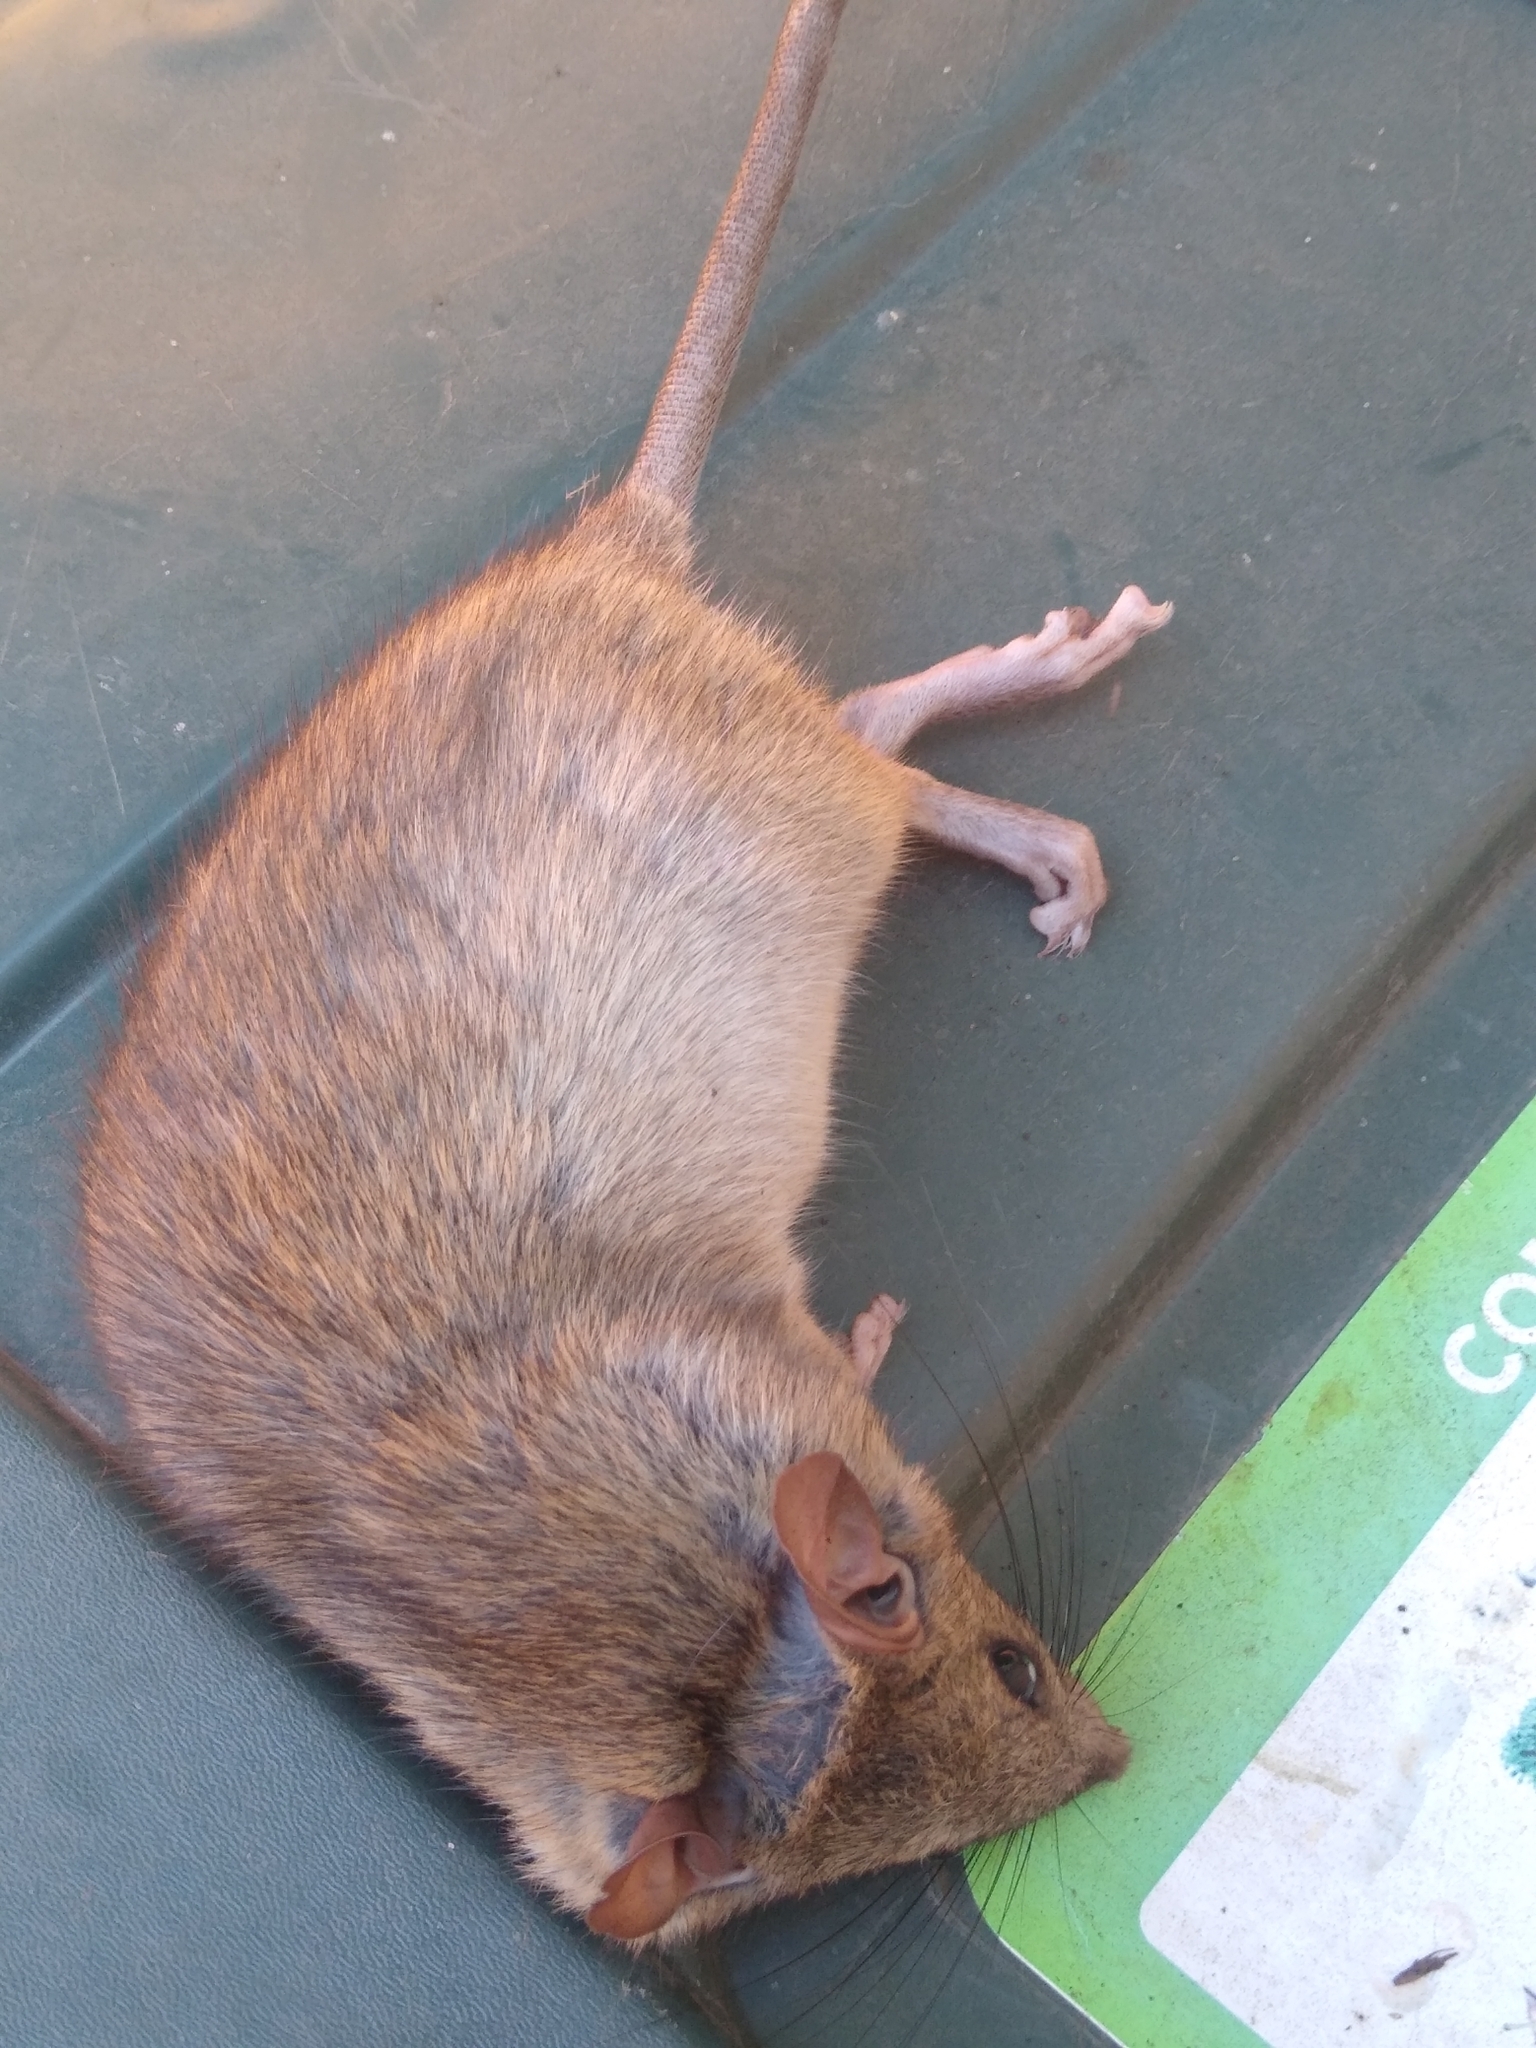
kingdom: Animalia
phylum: Chordata
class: Mammalia
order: Rodentia
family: Muridae
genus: Rattus
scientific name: Rattus norvegicus
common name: Brown rat
